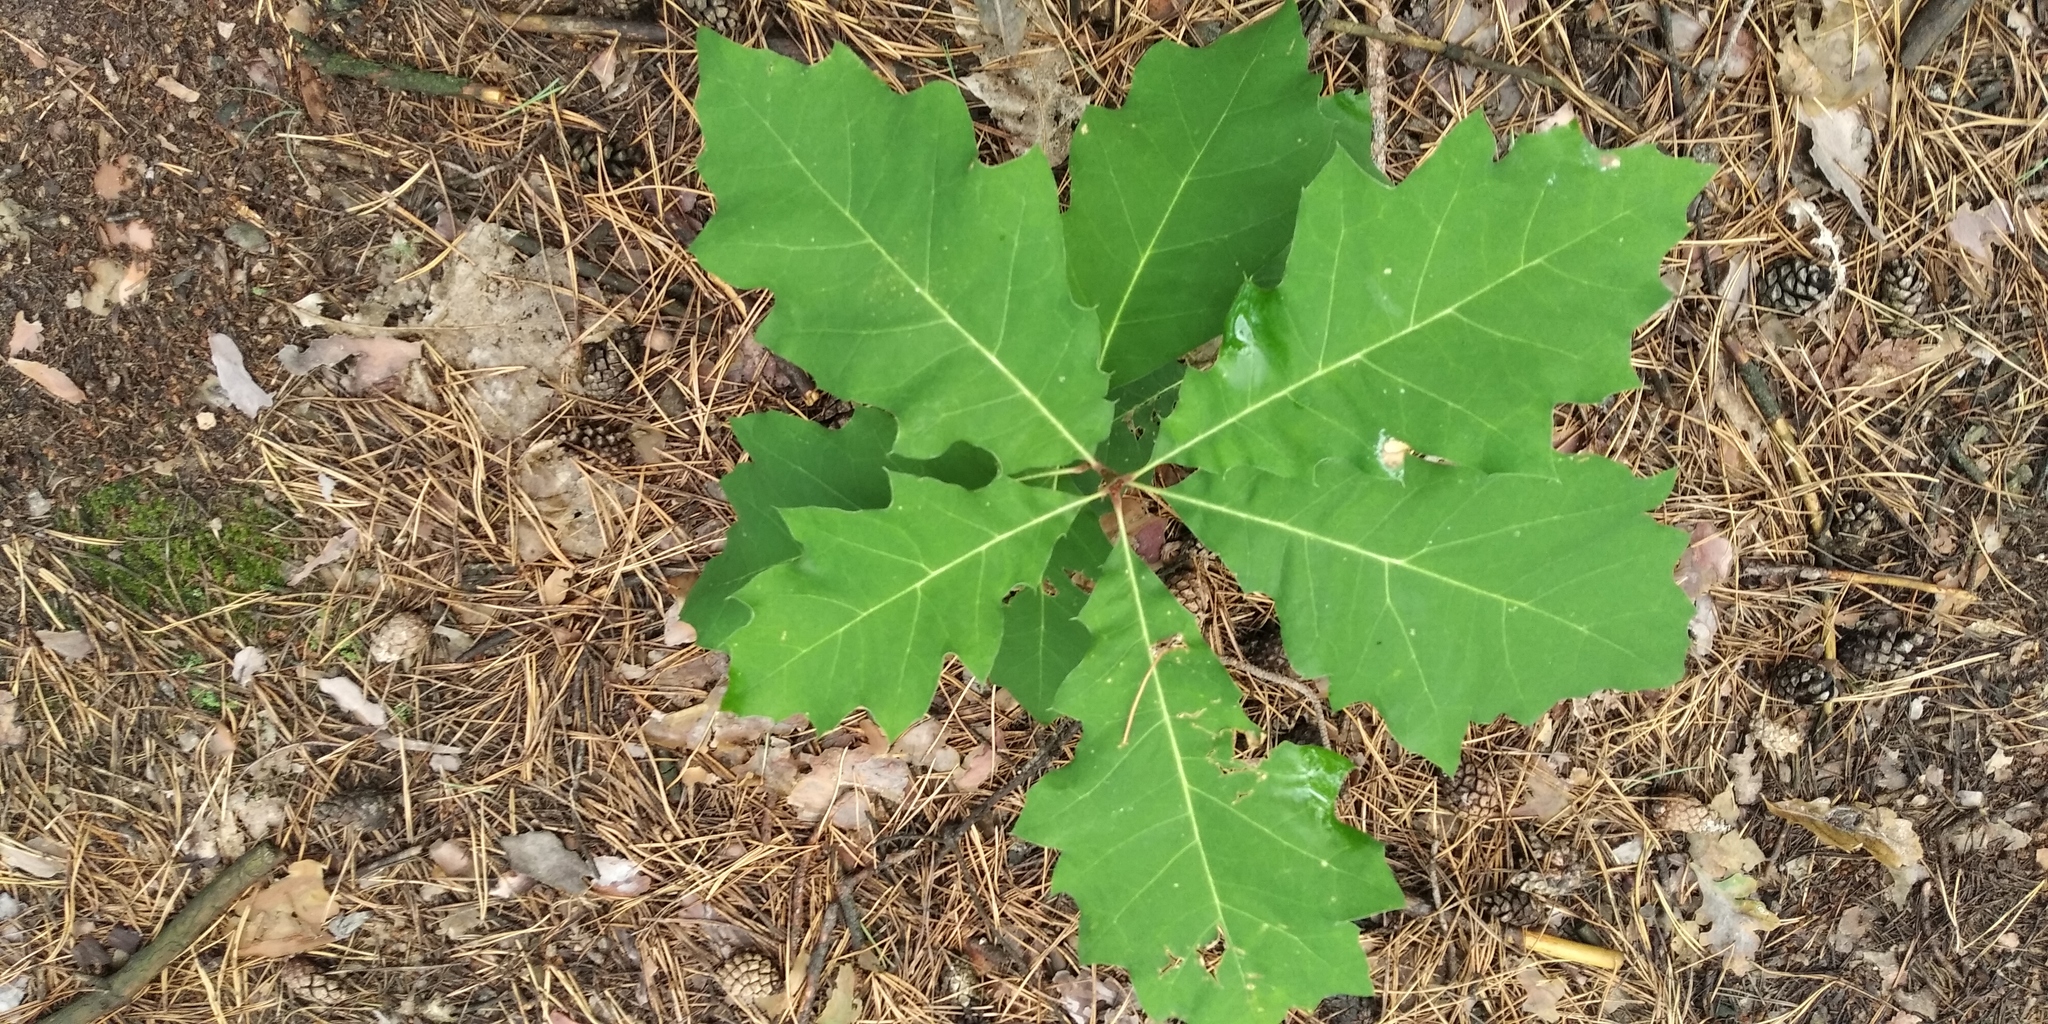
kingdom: Plantae
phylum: Tracheophyta
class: Magnoliopsida
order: Fagales
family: Fagaceae
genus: Quercus
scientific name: Quercus rubra
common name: Red oak
